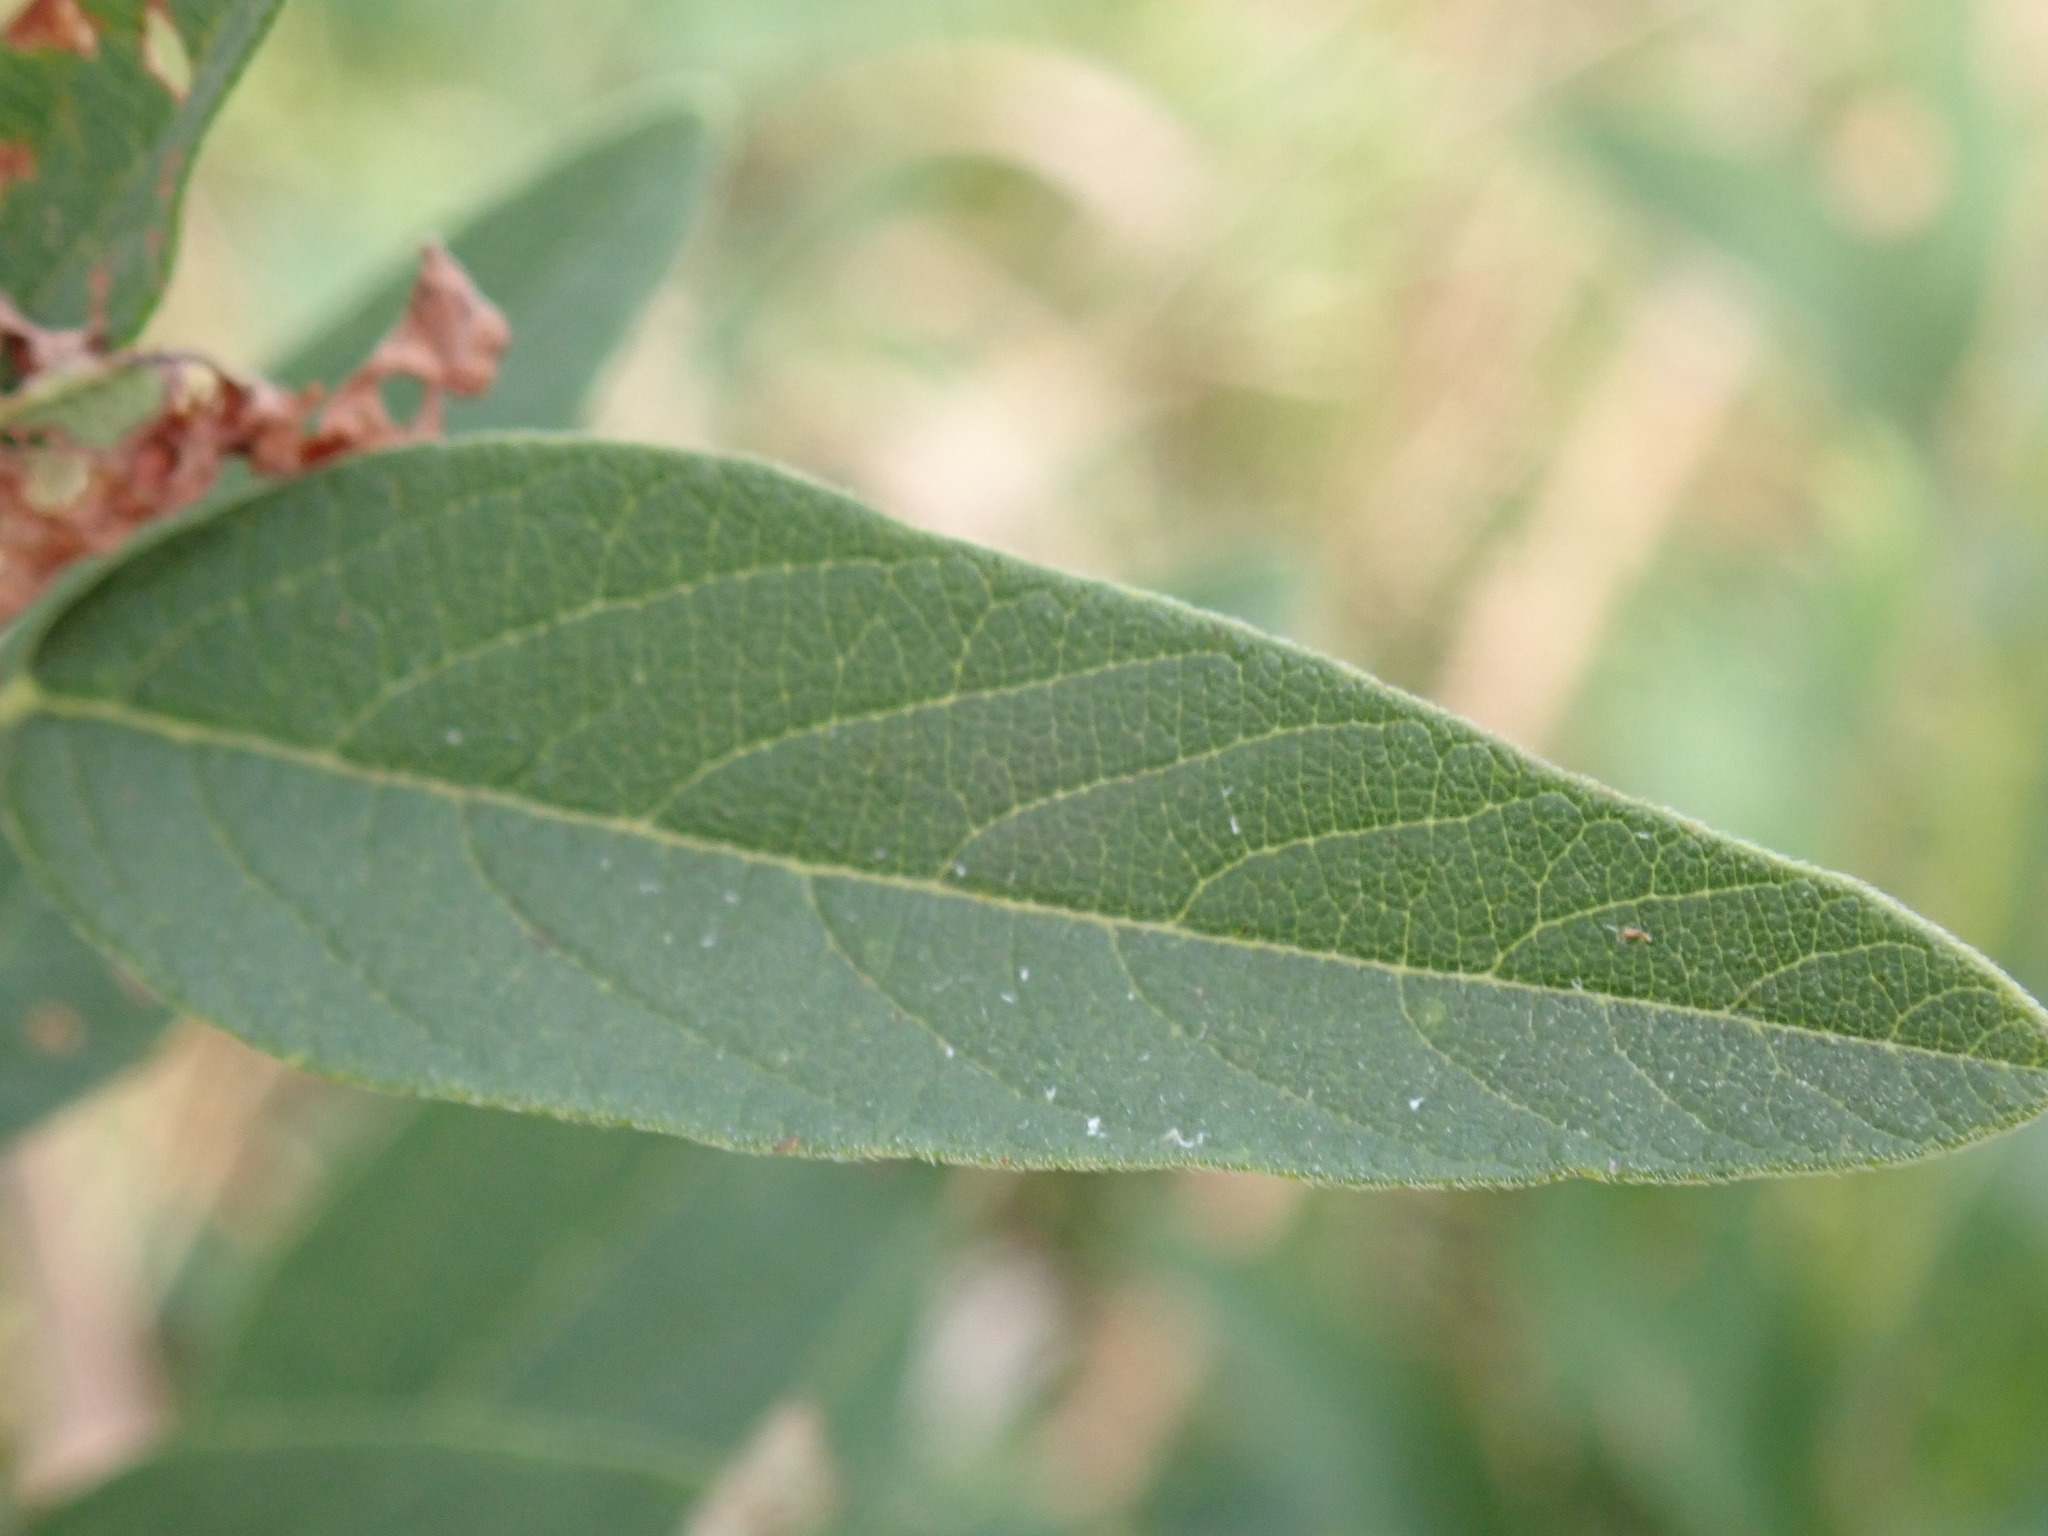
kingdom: Plantae
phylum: Tracheophyta
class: Magnoliopsida
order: Fabales
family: Fabaceae
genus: Desmodium
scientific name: Desmodium canadense
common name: Canada tick-trefoil
